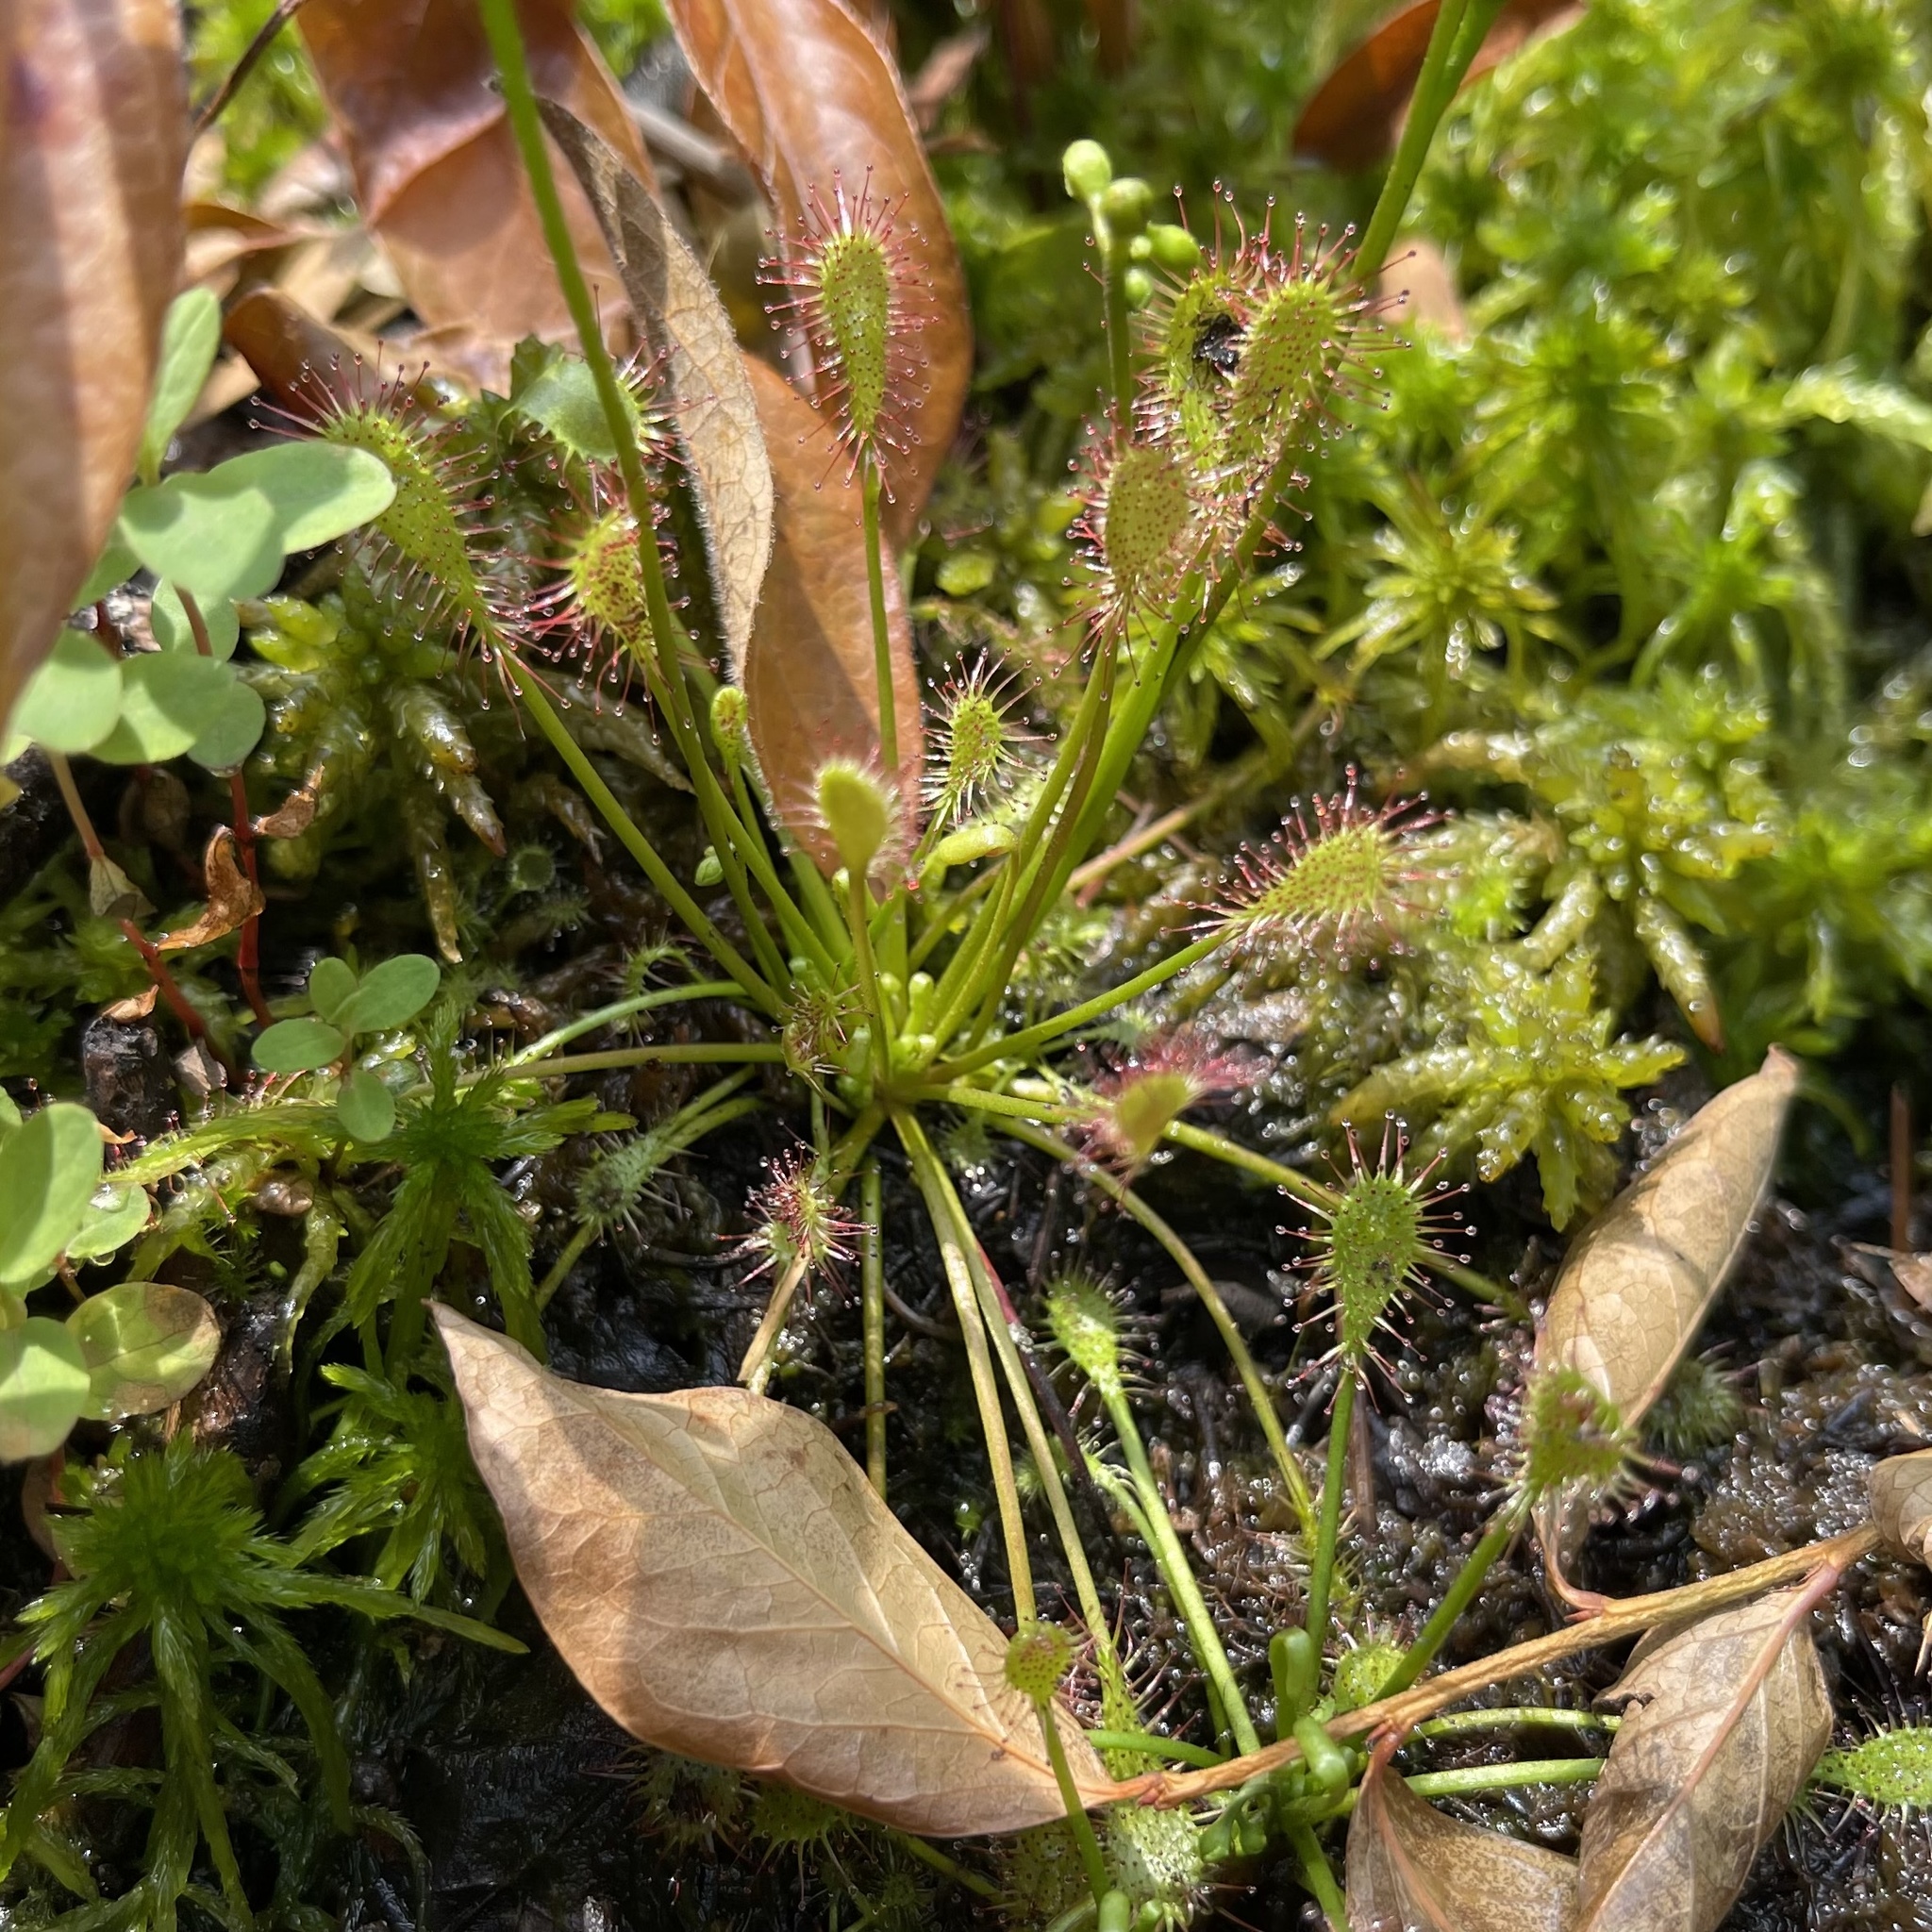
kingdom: Plantae
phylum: Tracheophyta
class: Magnoliopsida
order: Caryophyllales
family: Droseraceae
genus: Drosera
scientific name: Drosera intermedia
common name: Oblong-leaved sundew
